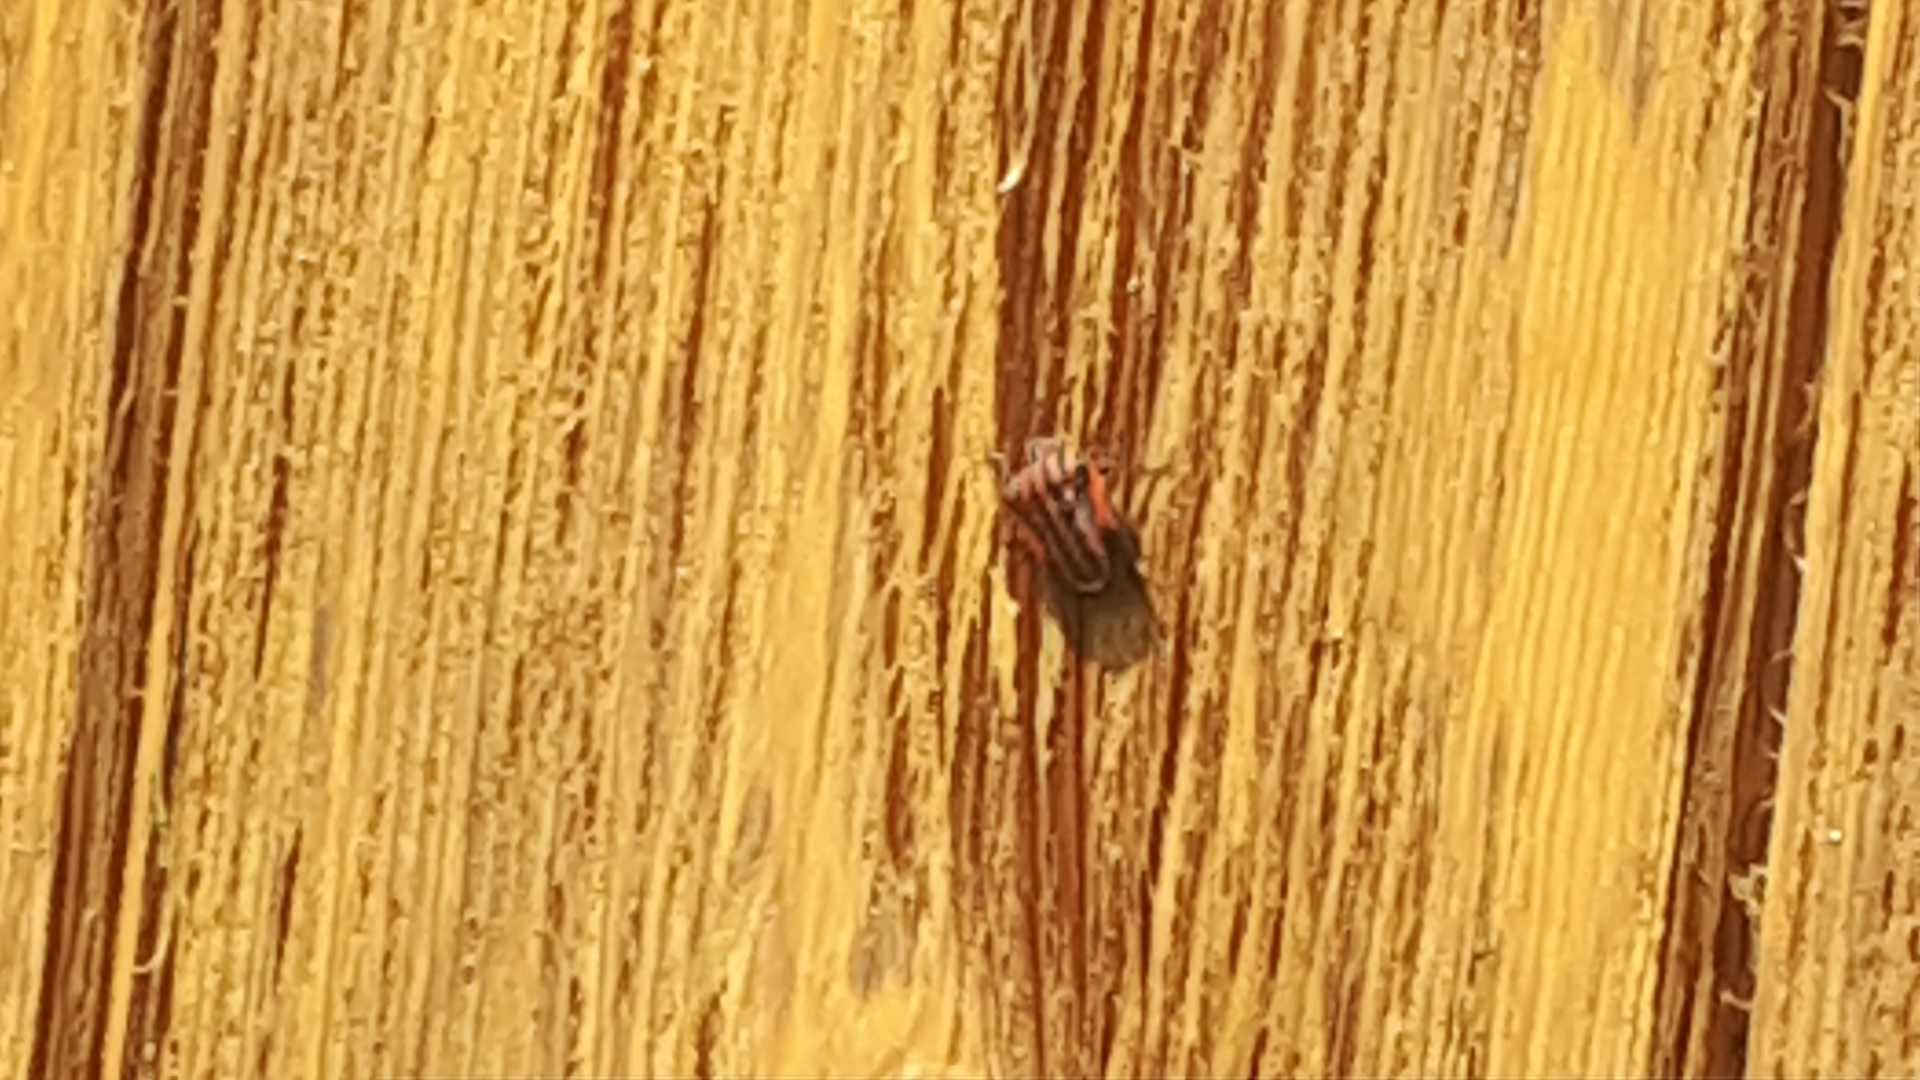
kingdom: Animalia
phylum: Arthropoda
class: Insecta
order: Hemiptera
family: Pentatomidae
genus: Graphosoma
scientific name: Graphosoma italicum
